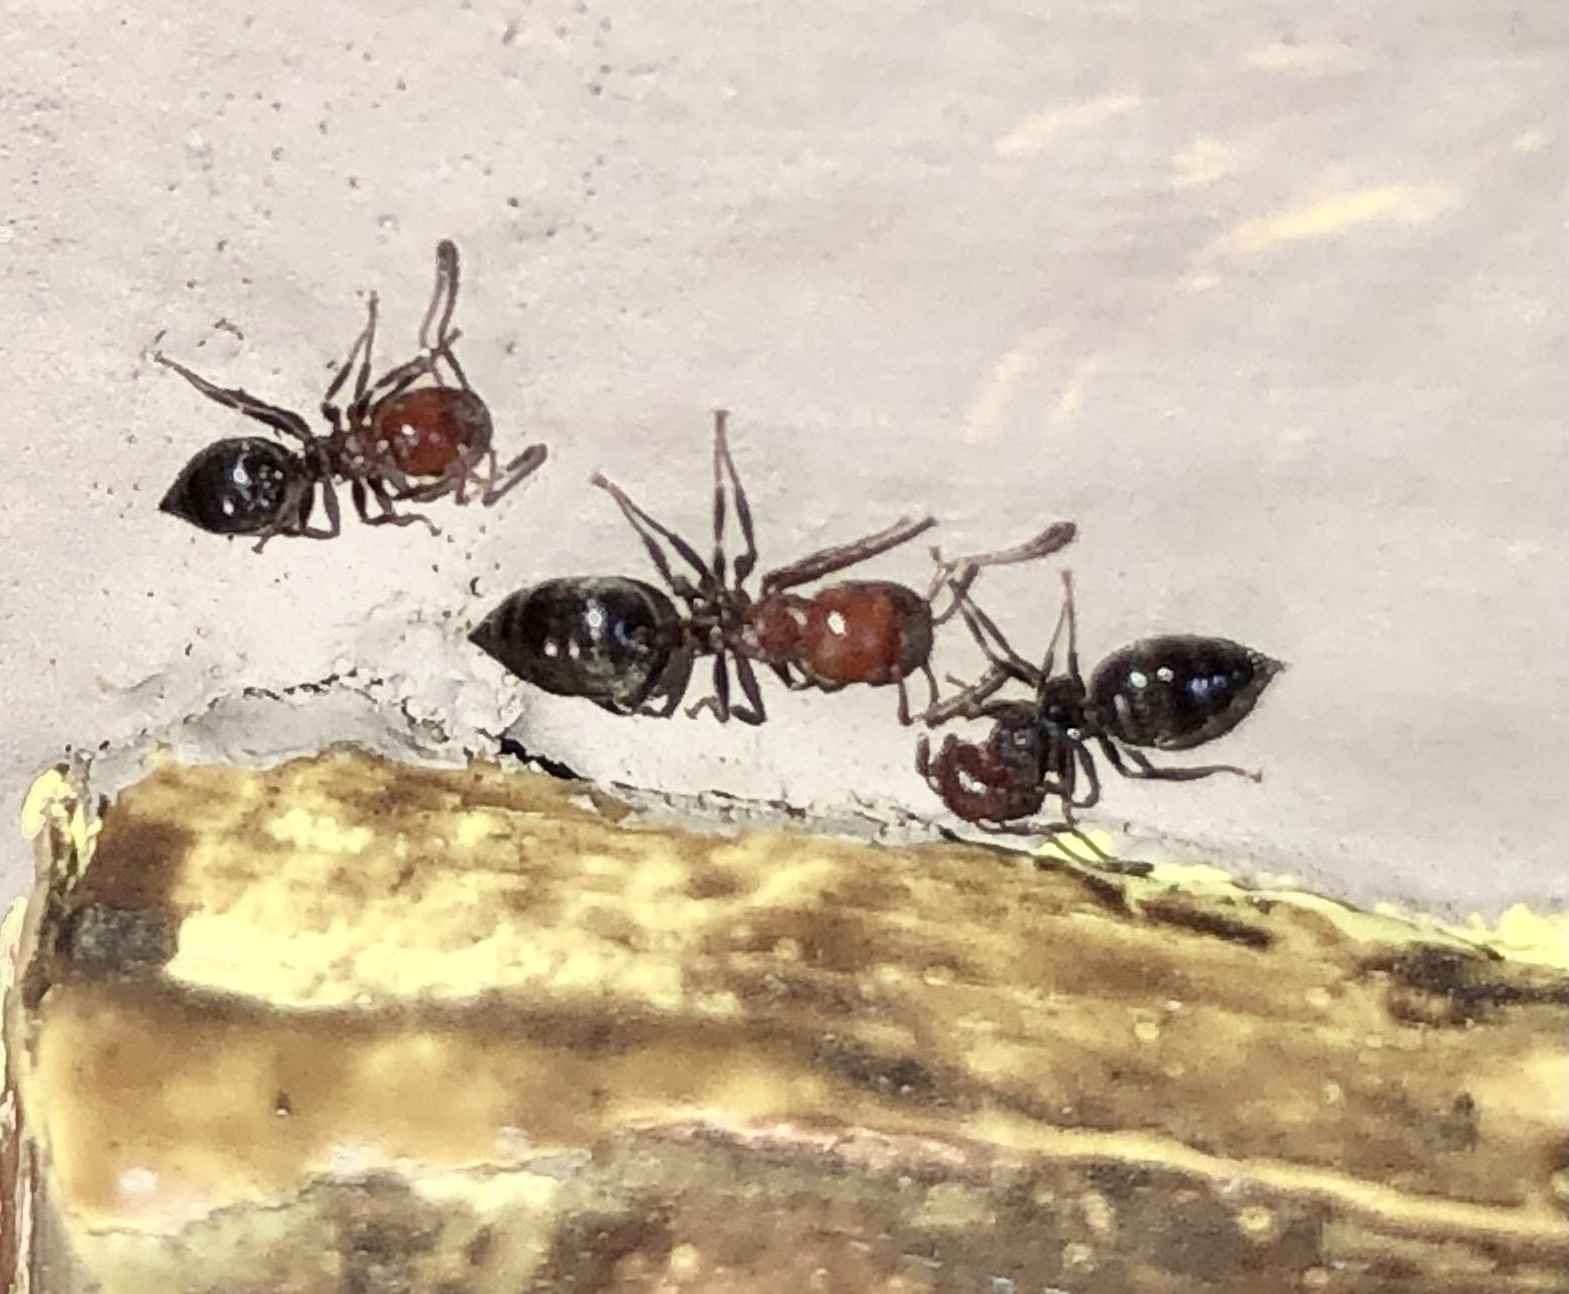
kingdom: Animalia
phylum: Arthropoda
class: Insecta
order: Hymenoptera
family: Formicidae
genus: Crematogaster
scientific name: Crematogaster scutellaris
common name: Fourmi du liège
